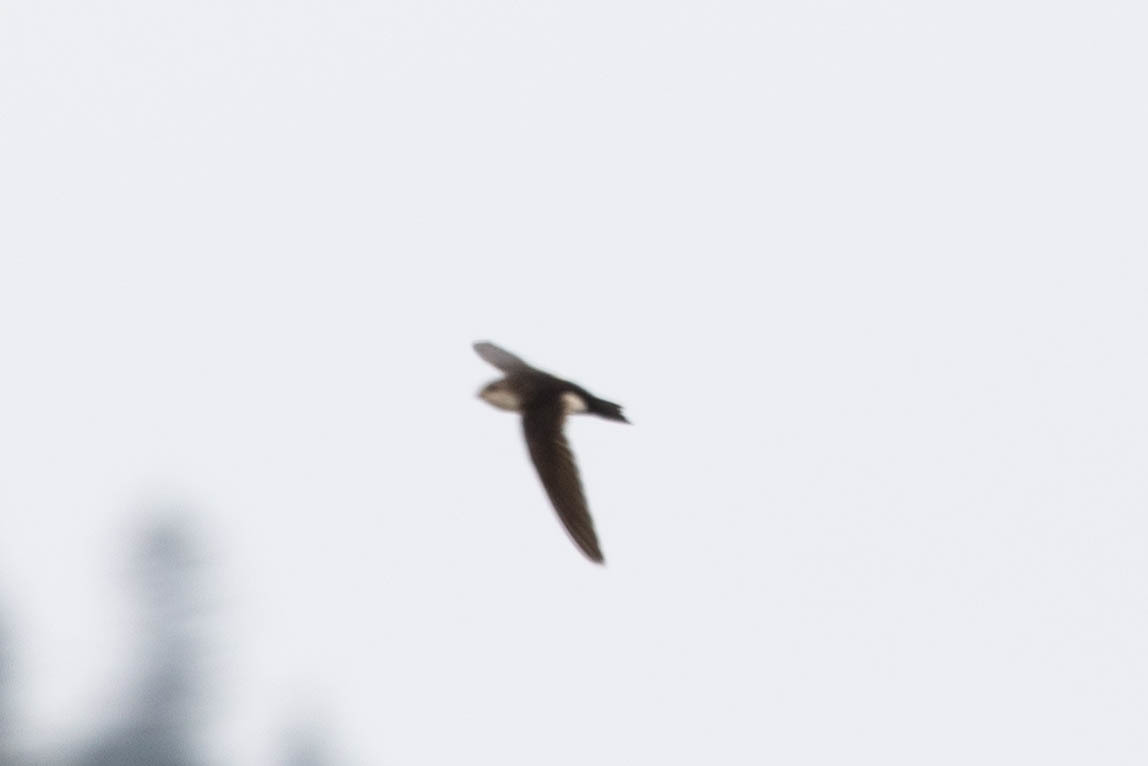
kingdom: Animalia
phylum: Chordata
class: Aves
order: Apodiformes
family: Apodidae
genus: Aeronautes
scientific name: Aeronautes saxatalis
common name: White-throated swift
